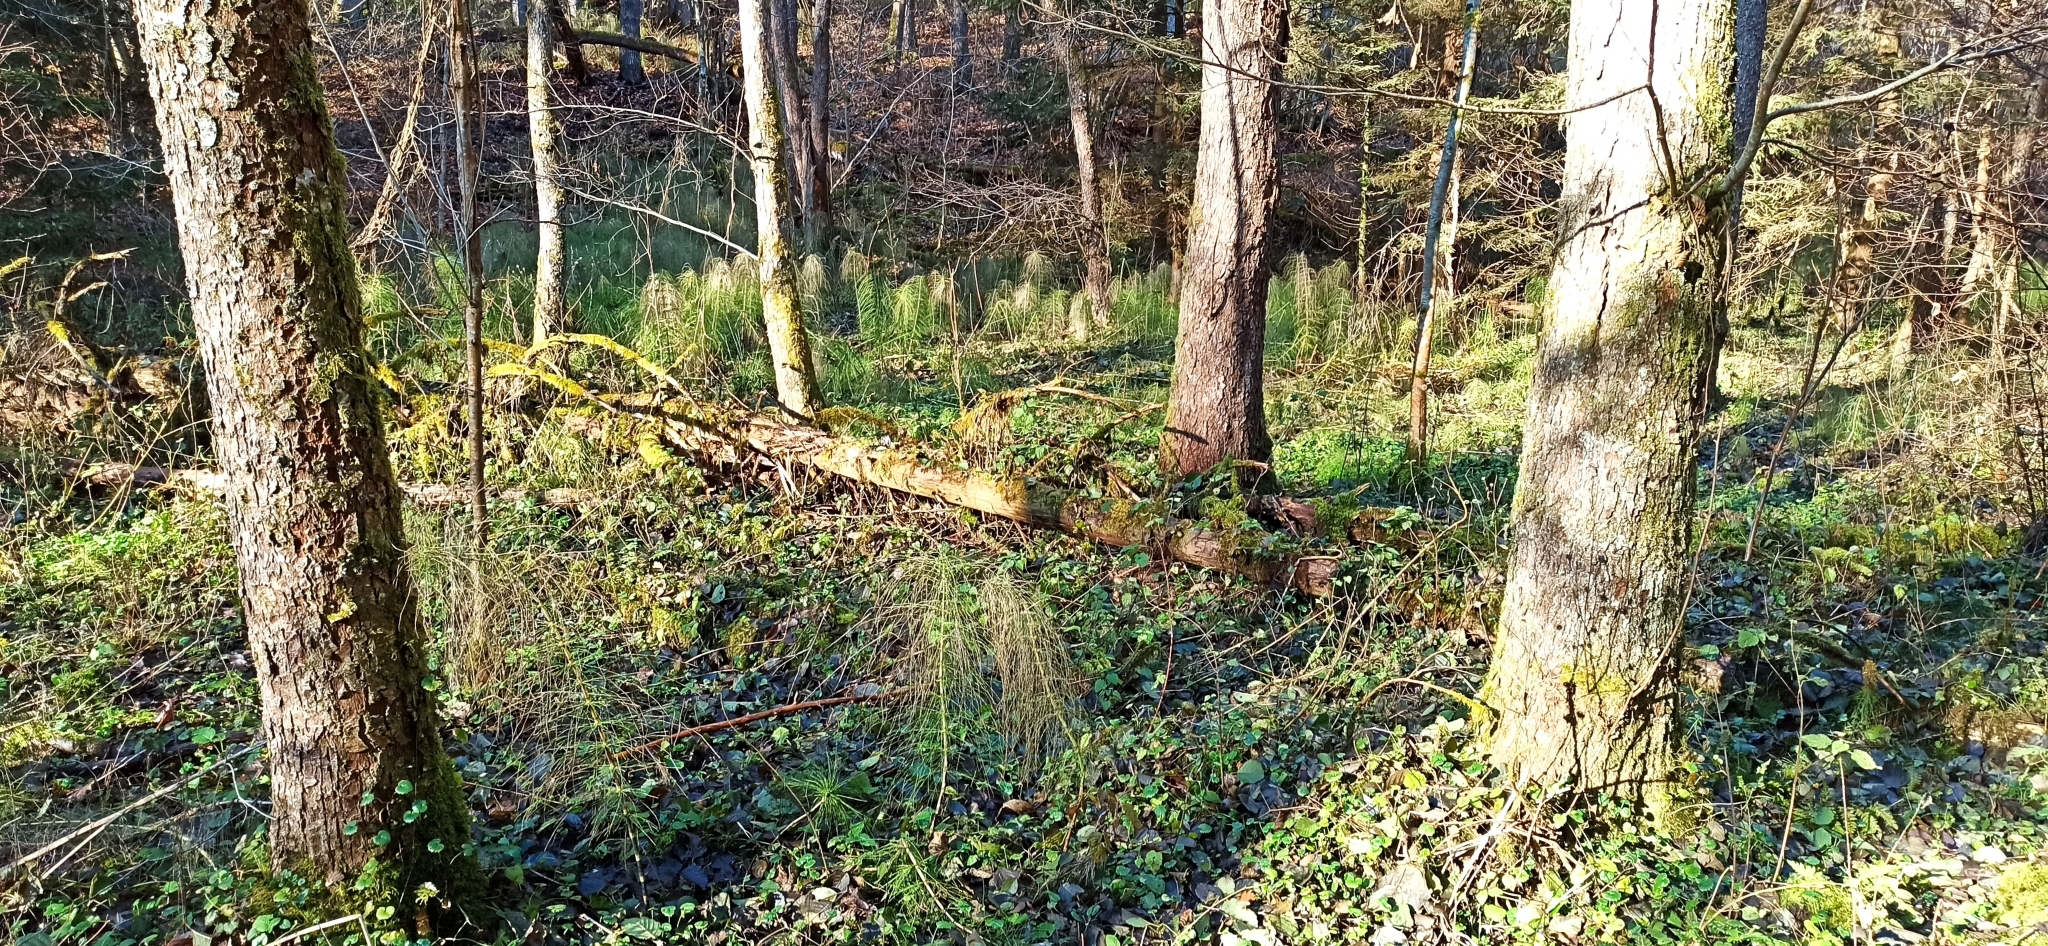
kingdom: Plantae
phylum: Tracheophyta
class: Polypodiopsida
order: Equisetales
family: Equisetaceae
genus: Equisetum
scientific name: Equisetum telmateia
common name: Great horsetail
